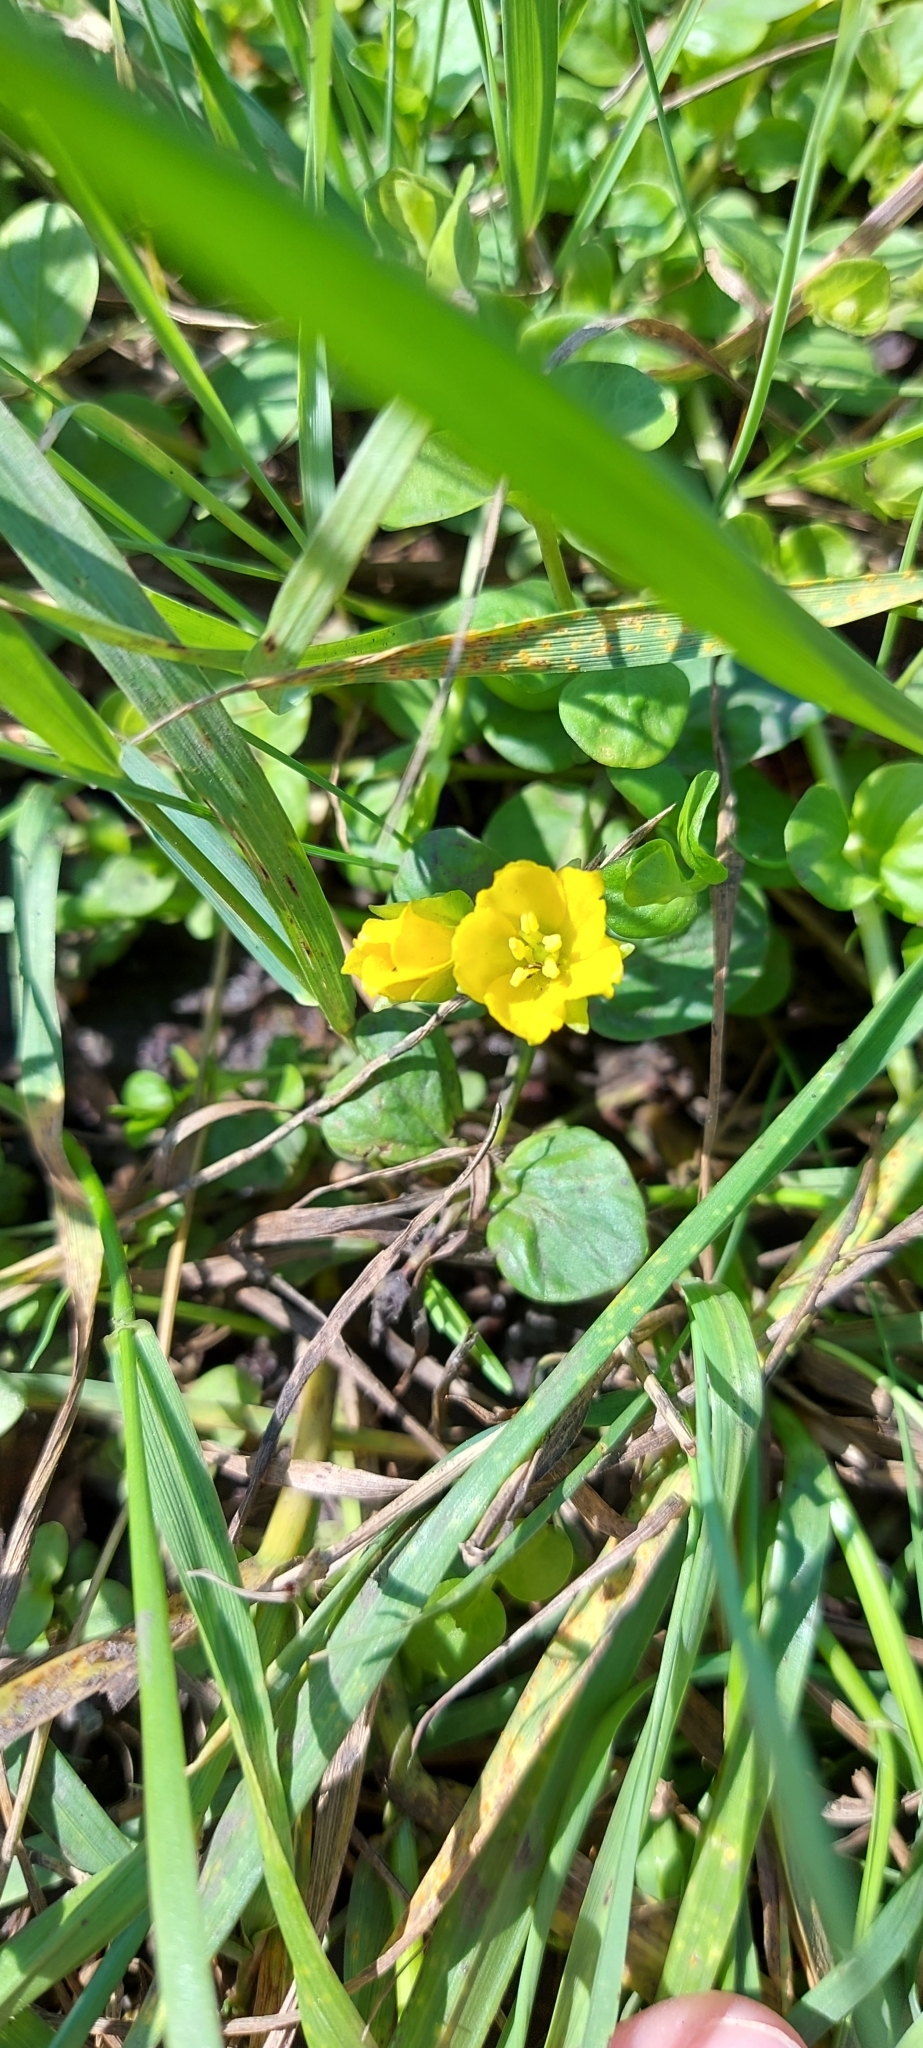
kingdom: Plantae
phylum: Tracheophyta
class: Magnoliopsida
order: Ericales
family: Primulaceae
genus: Lysimachia
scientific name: Lysimachia nummularia
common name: Moneywort
